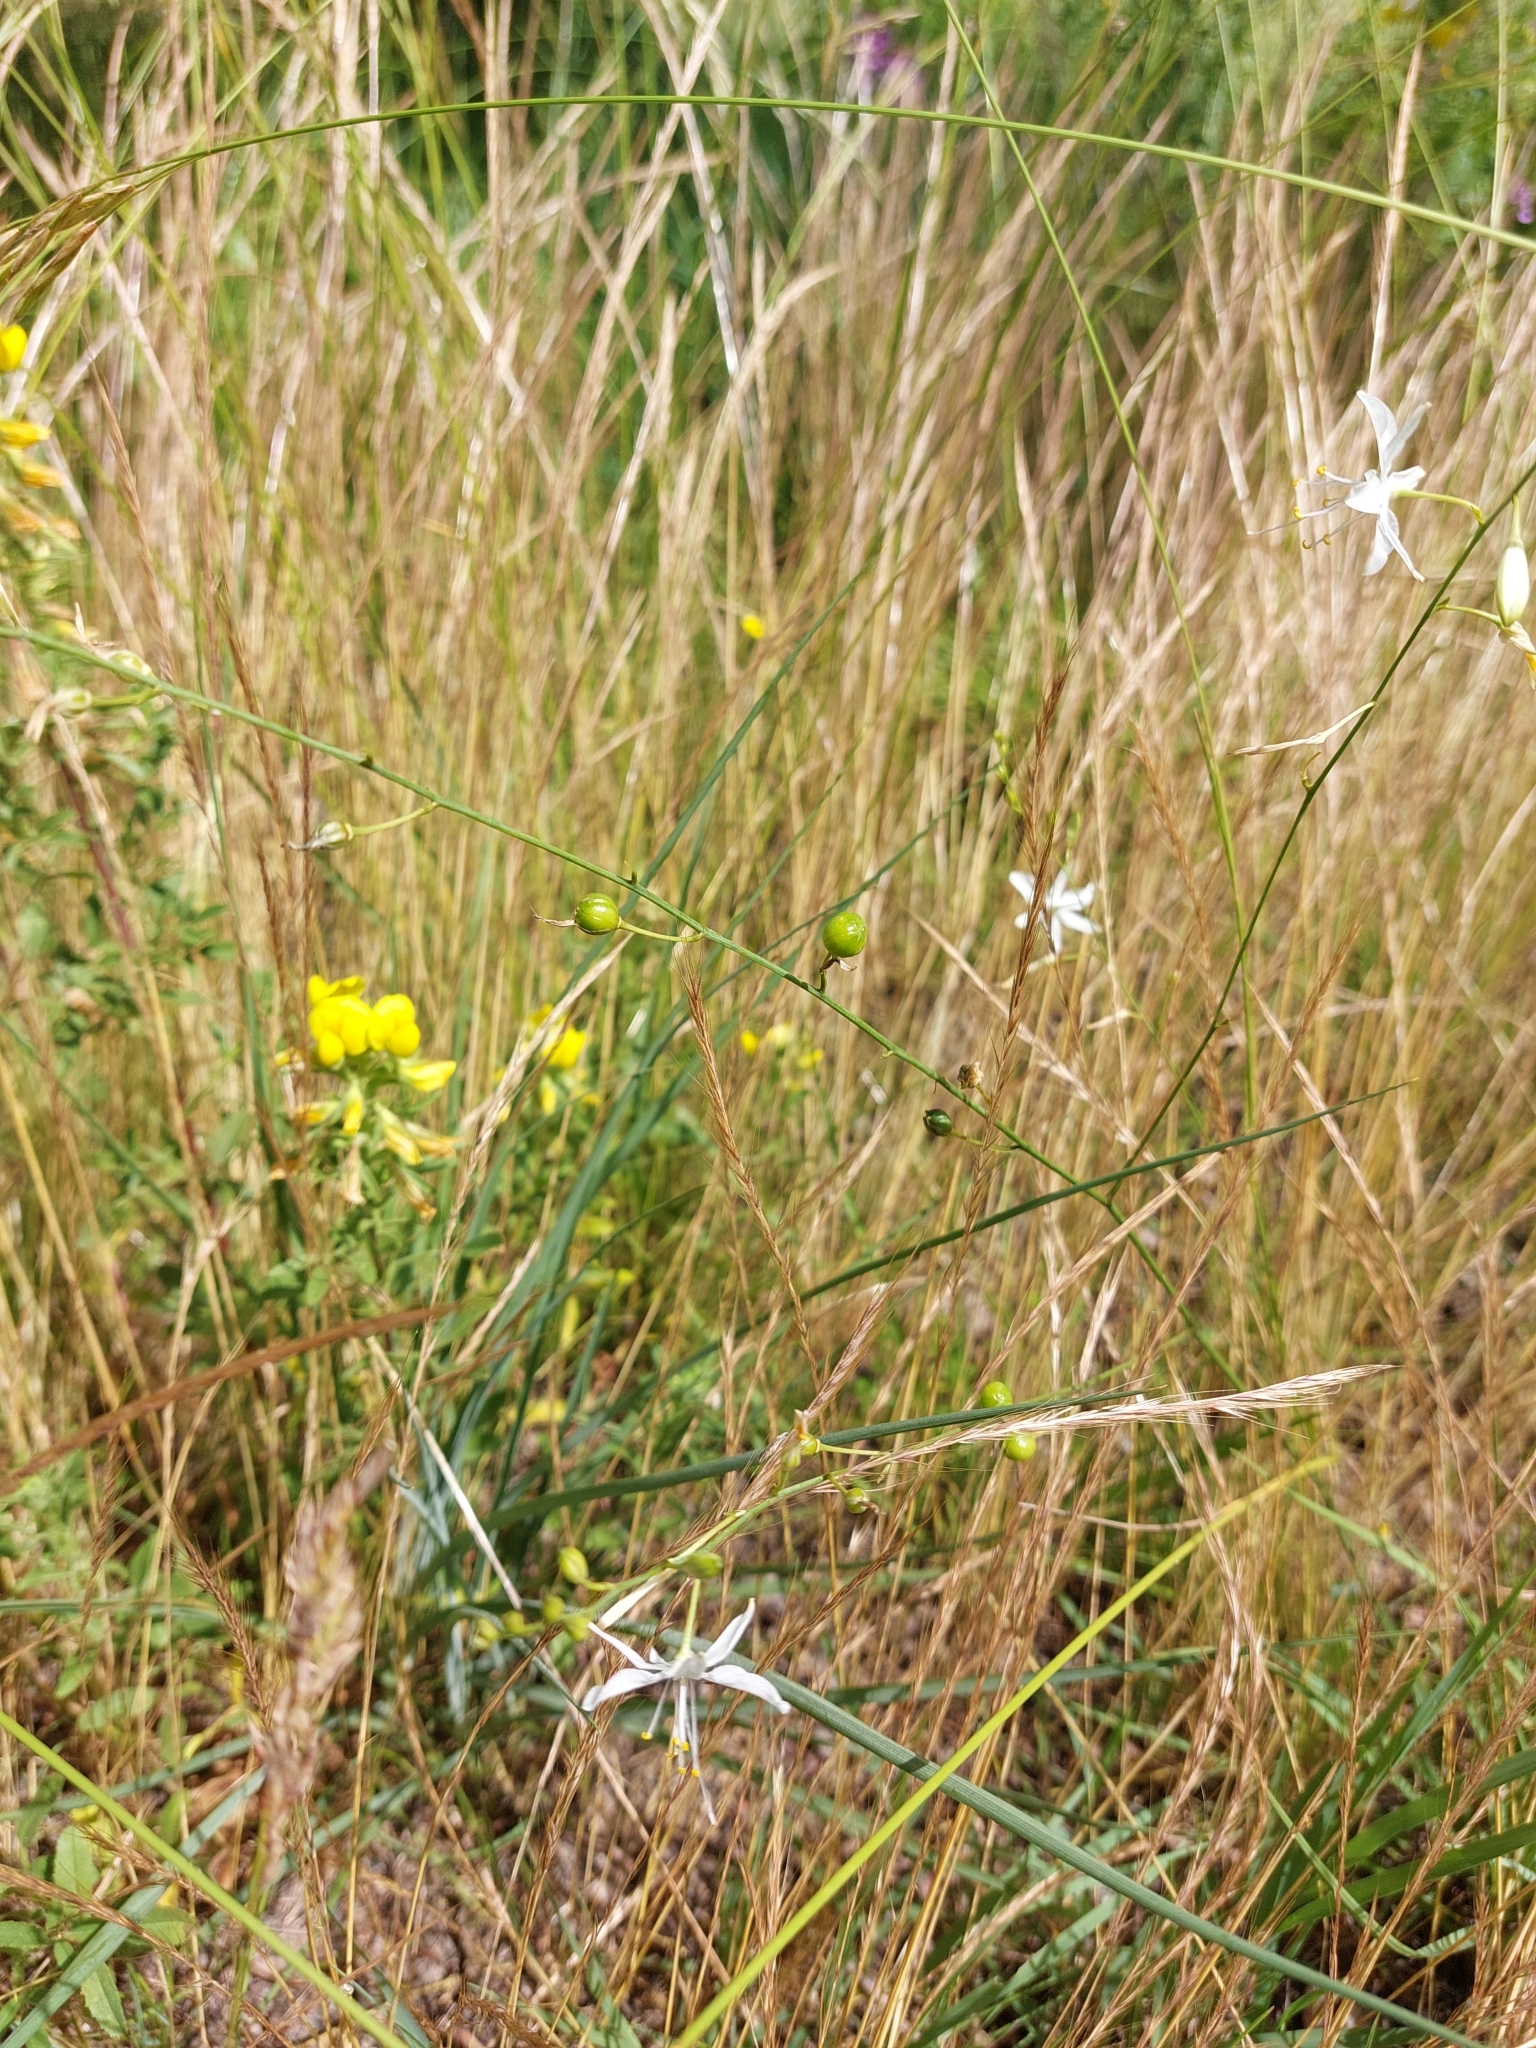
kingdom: Plantae
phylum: Tracheophyta
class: Liliopsida
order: Asparagales
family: Asparagaceae
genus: Anthericum
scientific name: Anthericum ramosum
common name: Branched st. bernard's-lily
